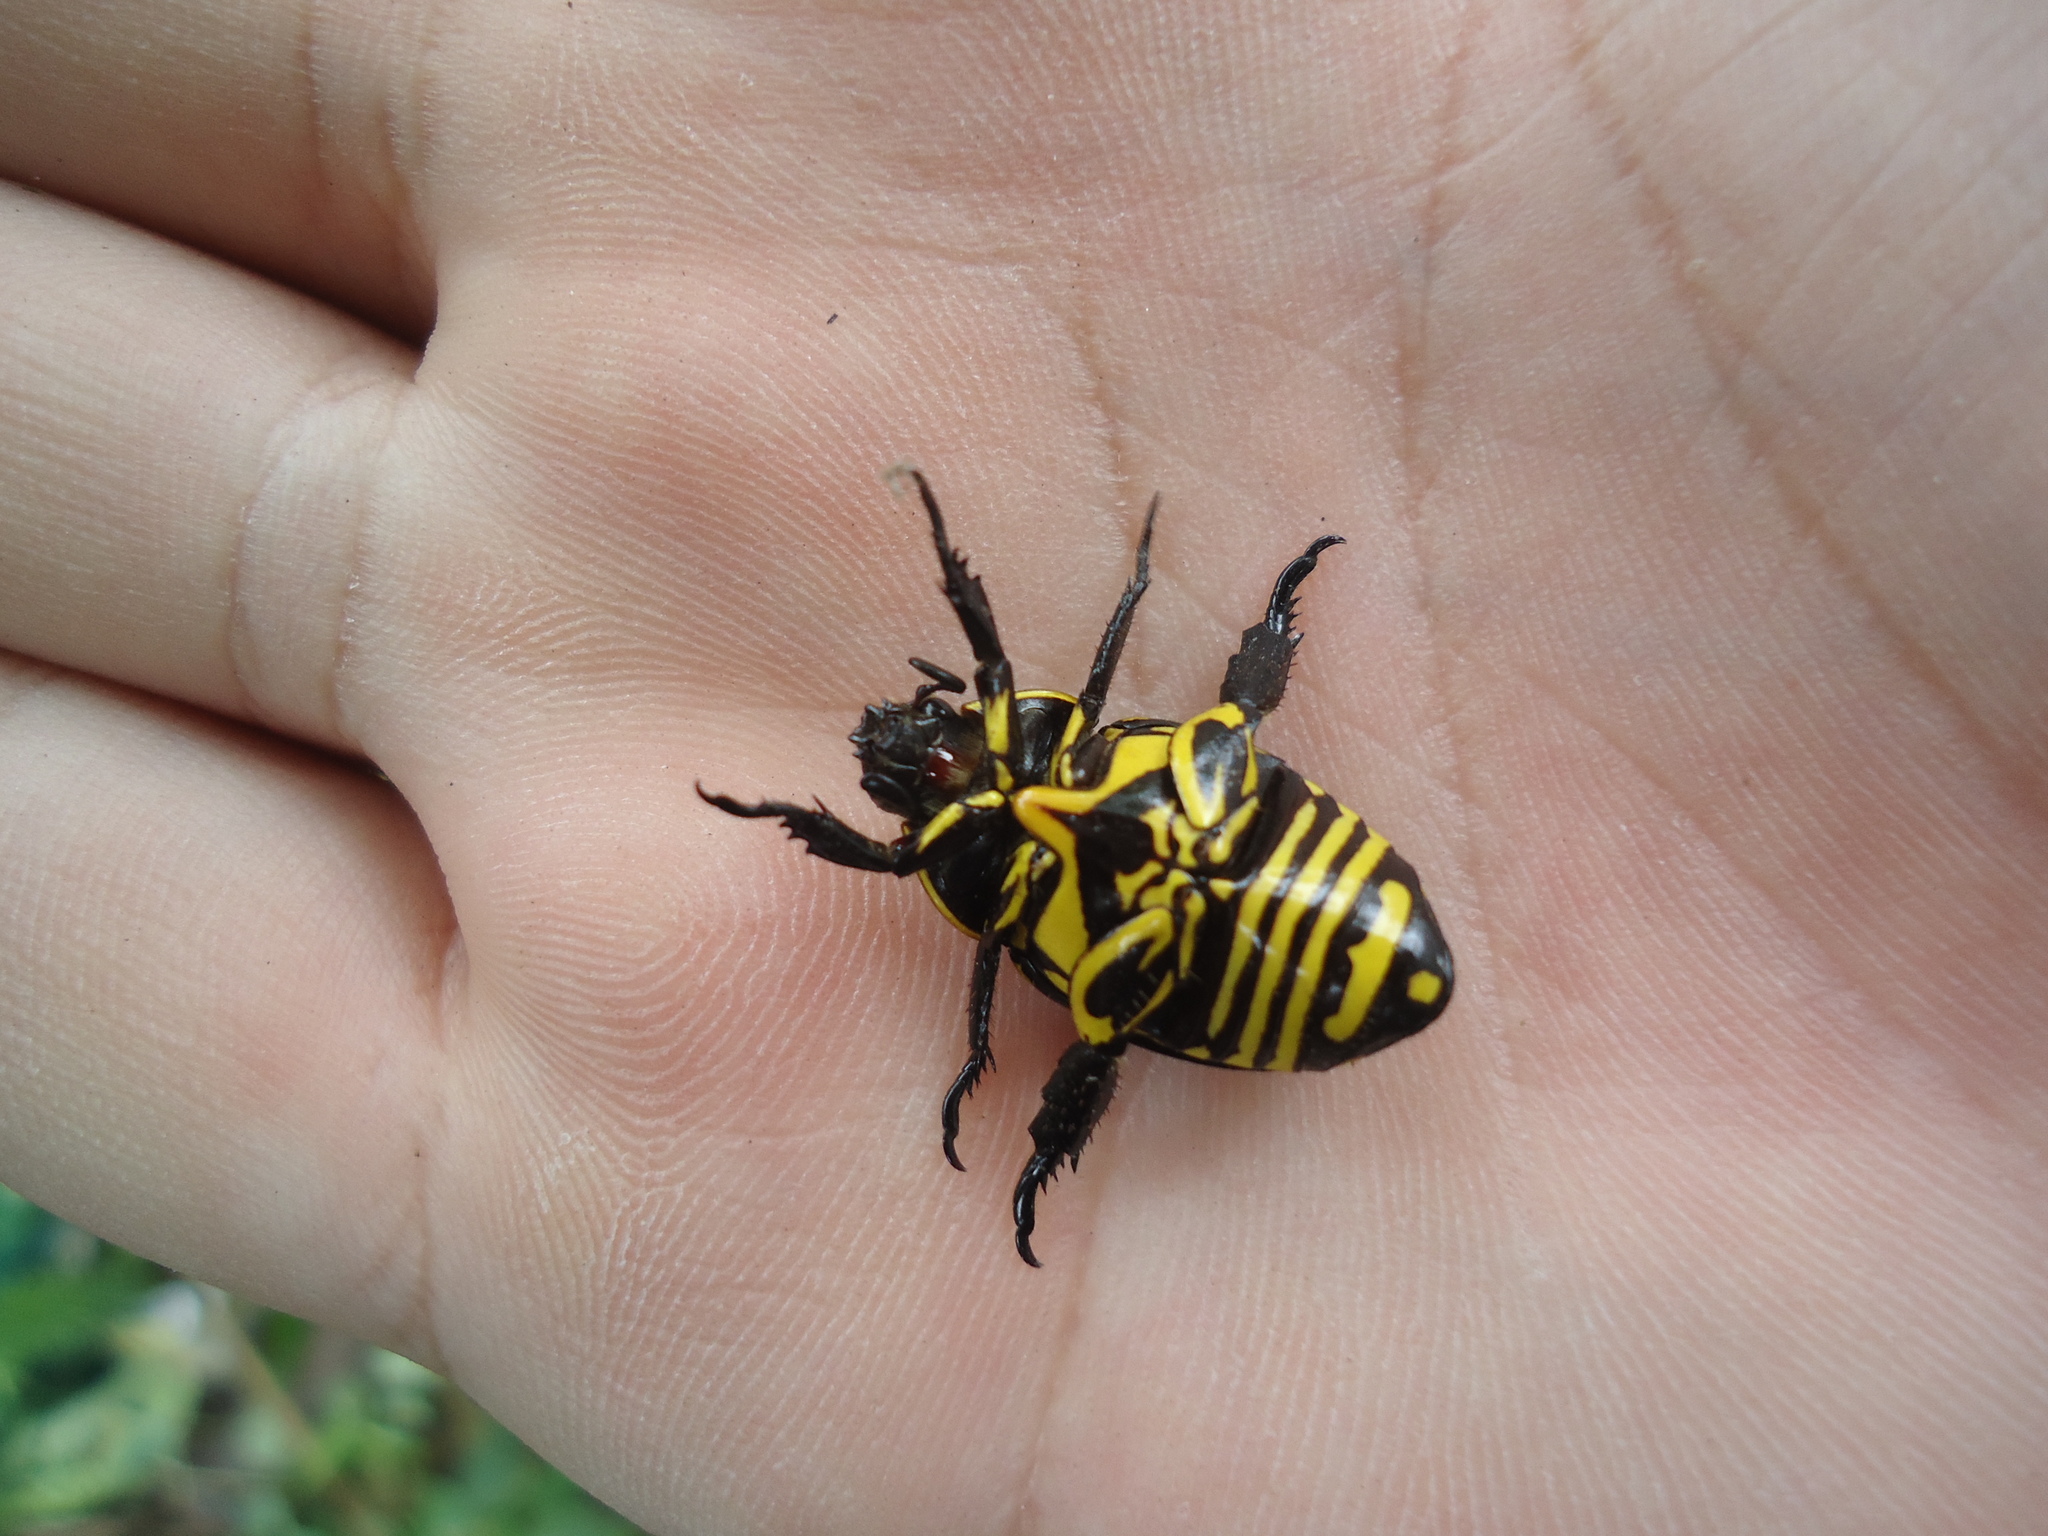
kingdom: Animalia
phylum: Arthropoda
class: Insecta
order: Coleoptera
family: Scarabaeidae
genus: Rutela
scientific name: Rutela lineola
